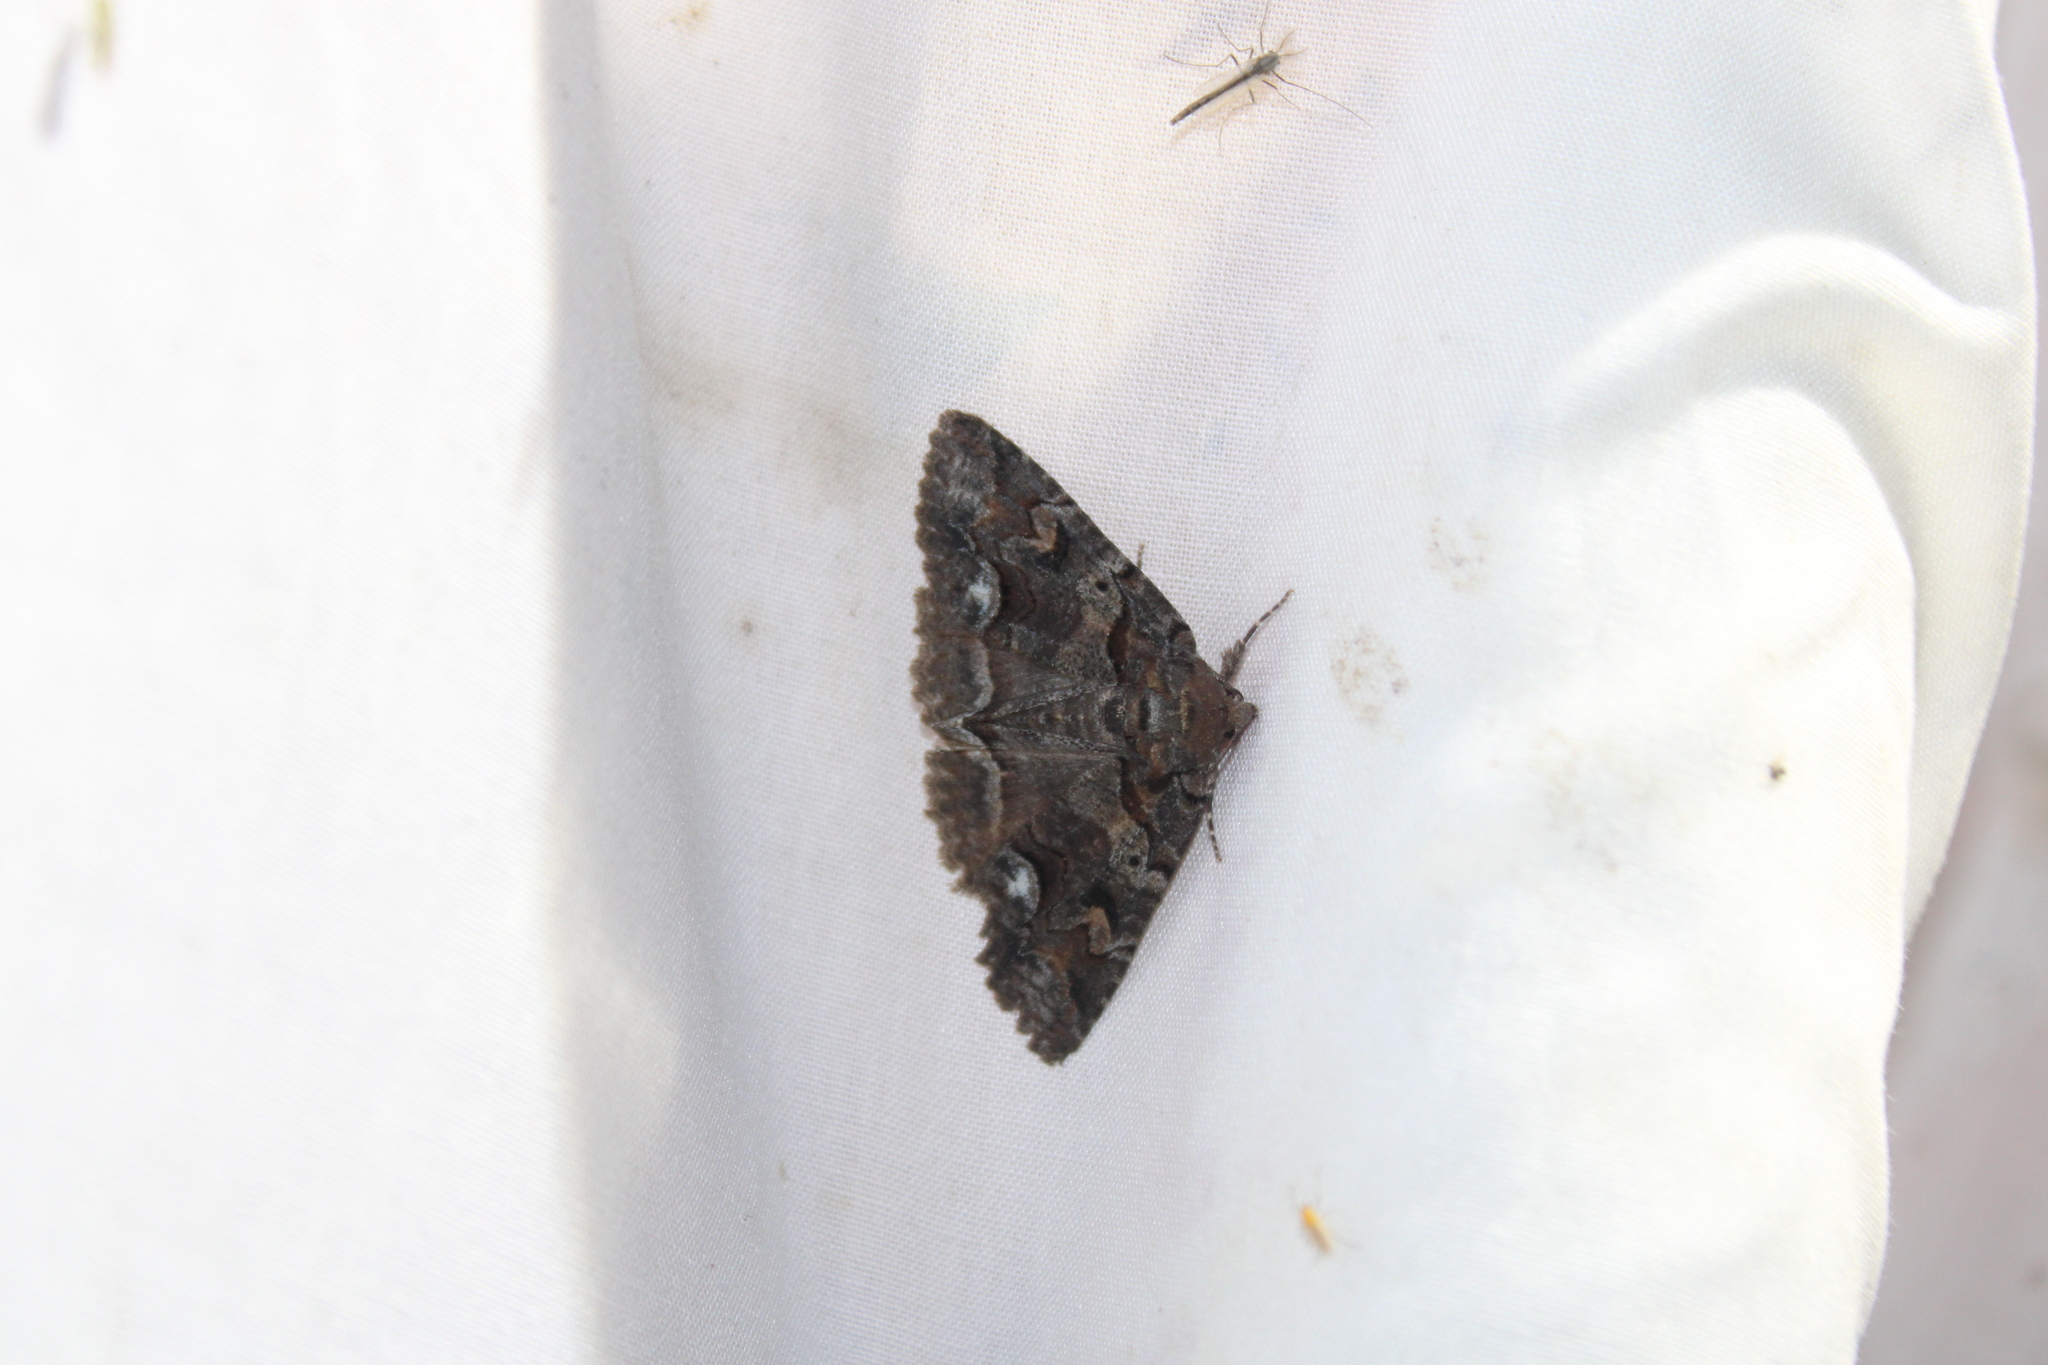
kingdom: Animalia
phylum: Arthropoda
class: Insecta
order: Lepidoptera
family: Erebidae
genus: Zale
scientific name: Zale helata
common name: Brown-spotted zale moth
